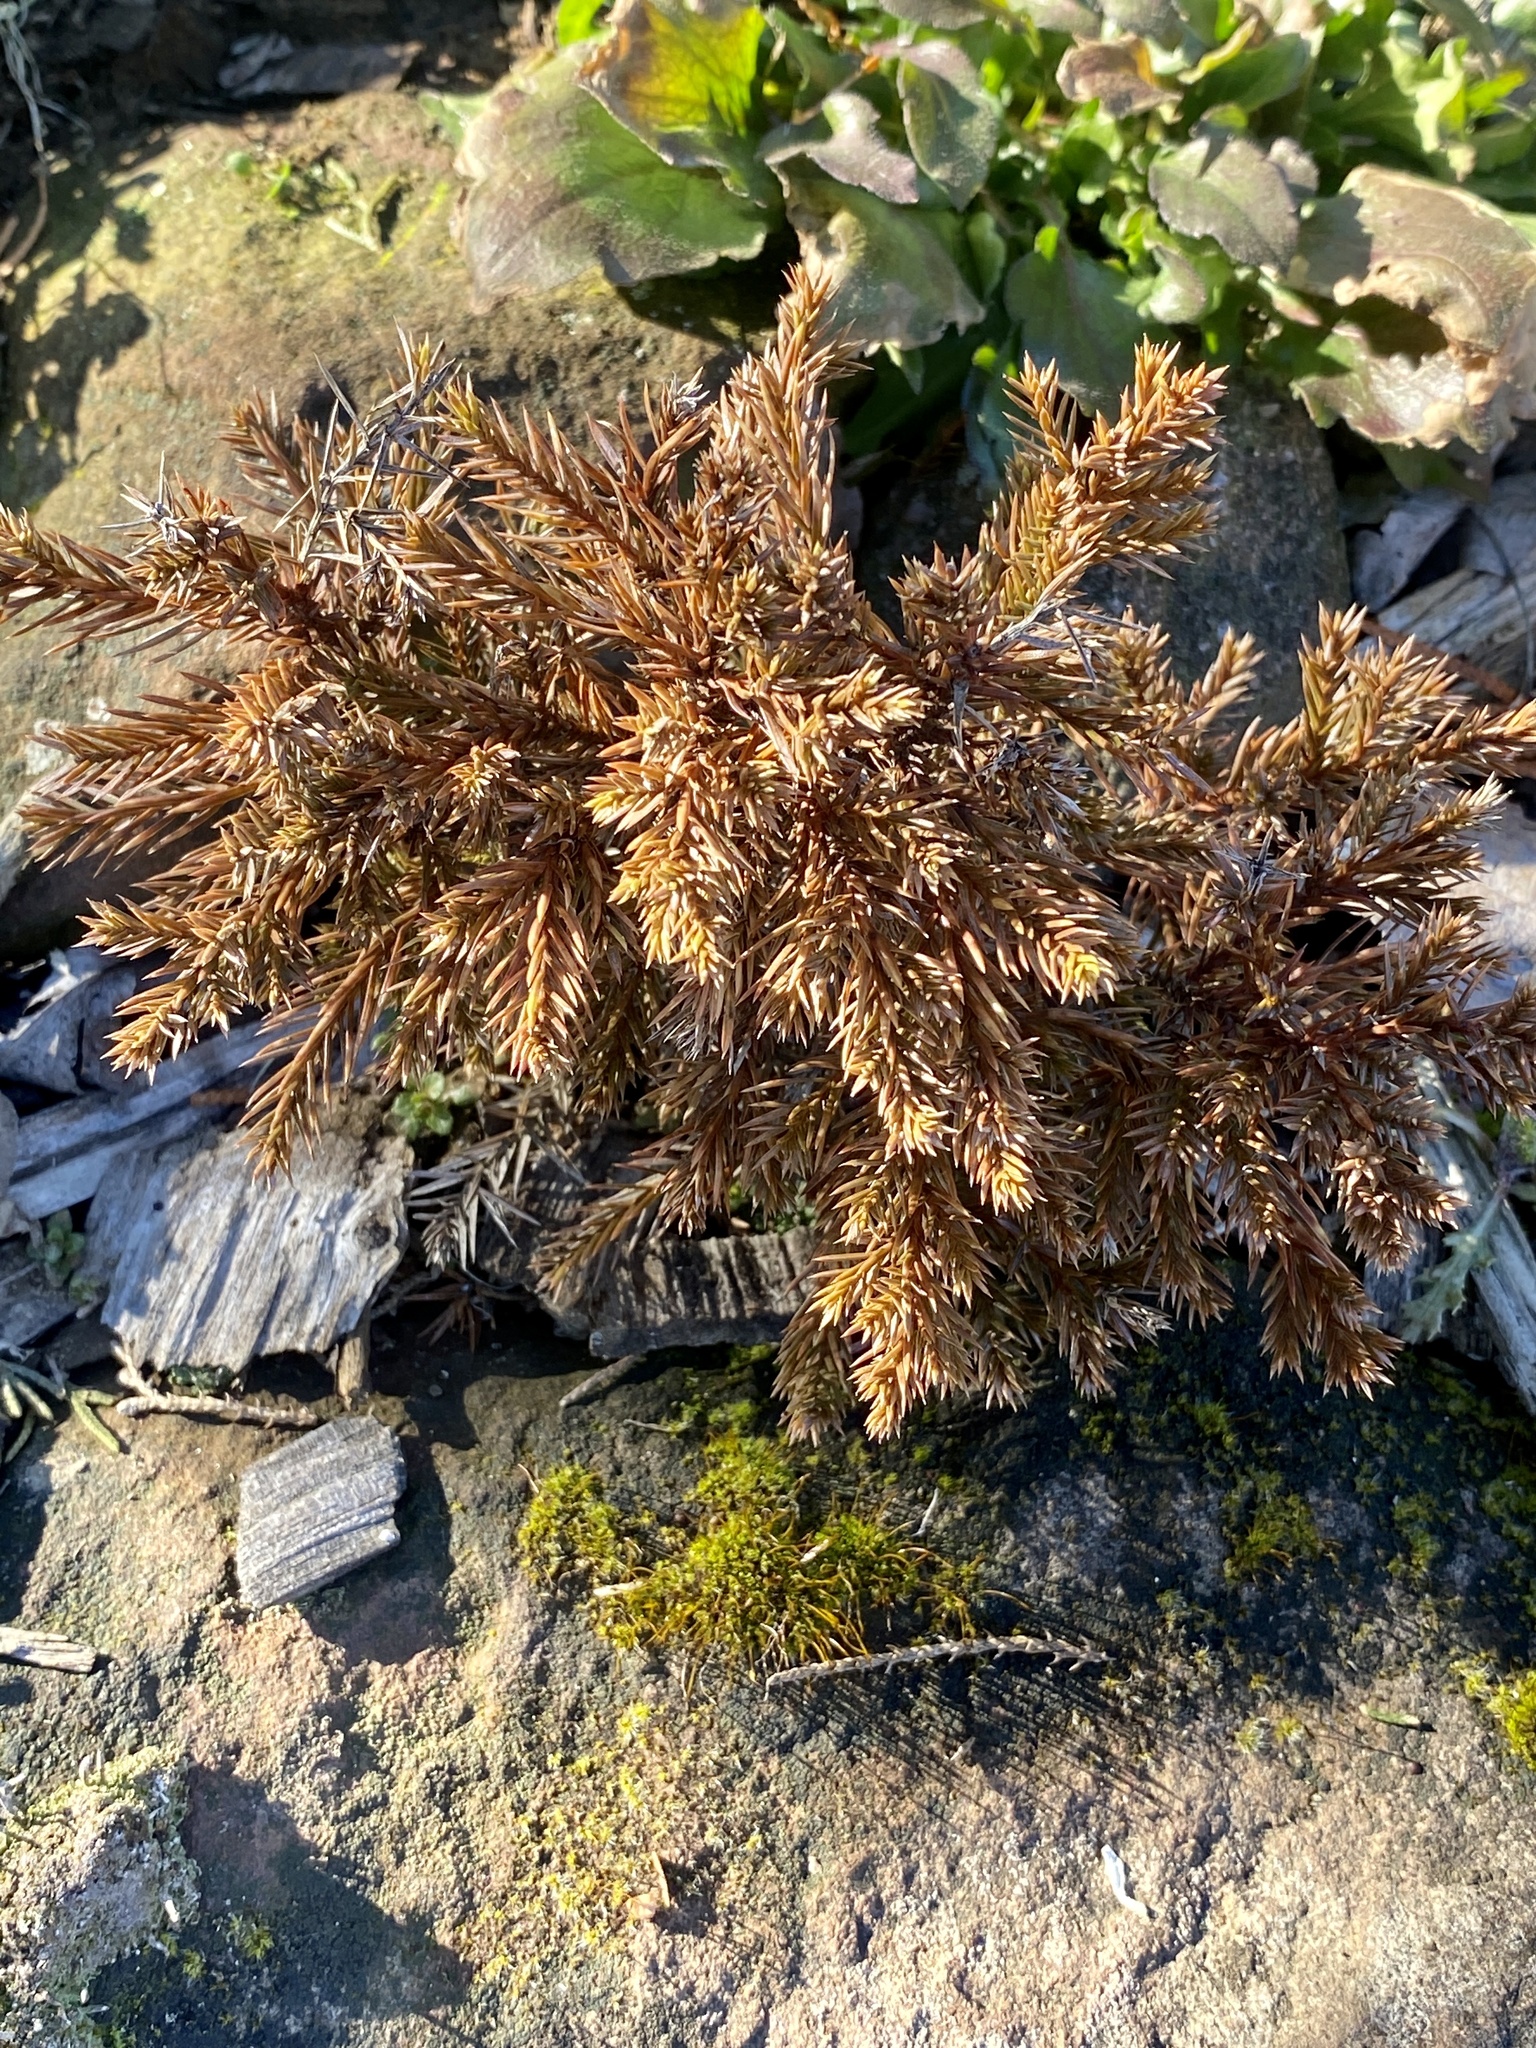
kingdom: Plantae
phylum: Tracheophyta
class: Pinopsida
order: Pinales
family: Cupressaceae
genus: Juniperus
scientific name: Juniperus virginiana
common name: Red juniper
